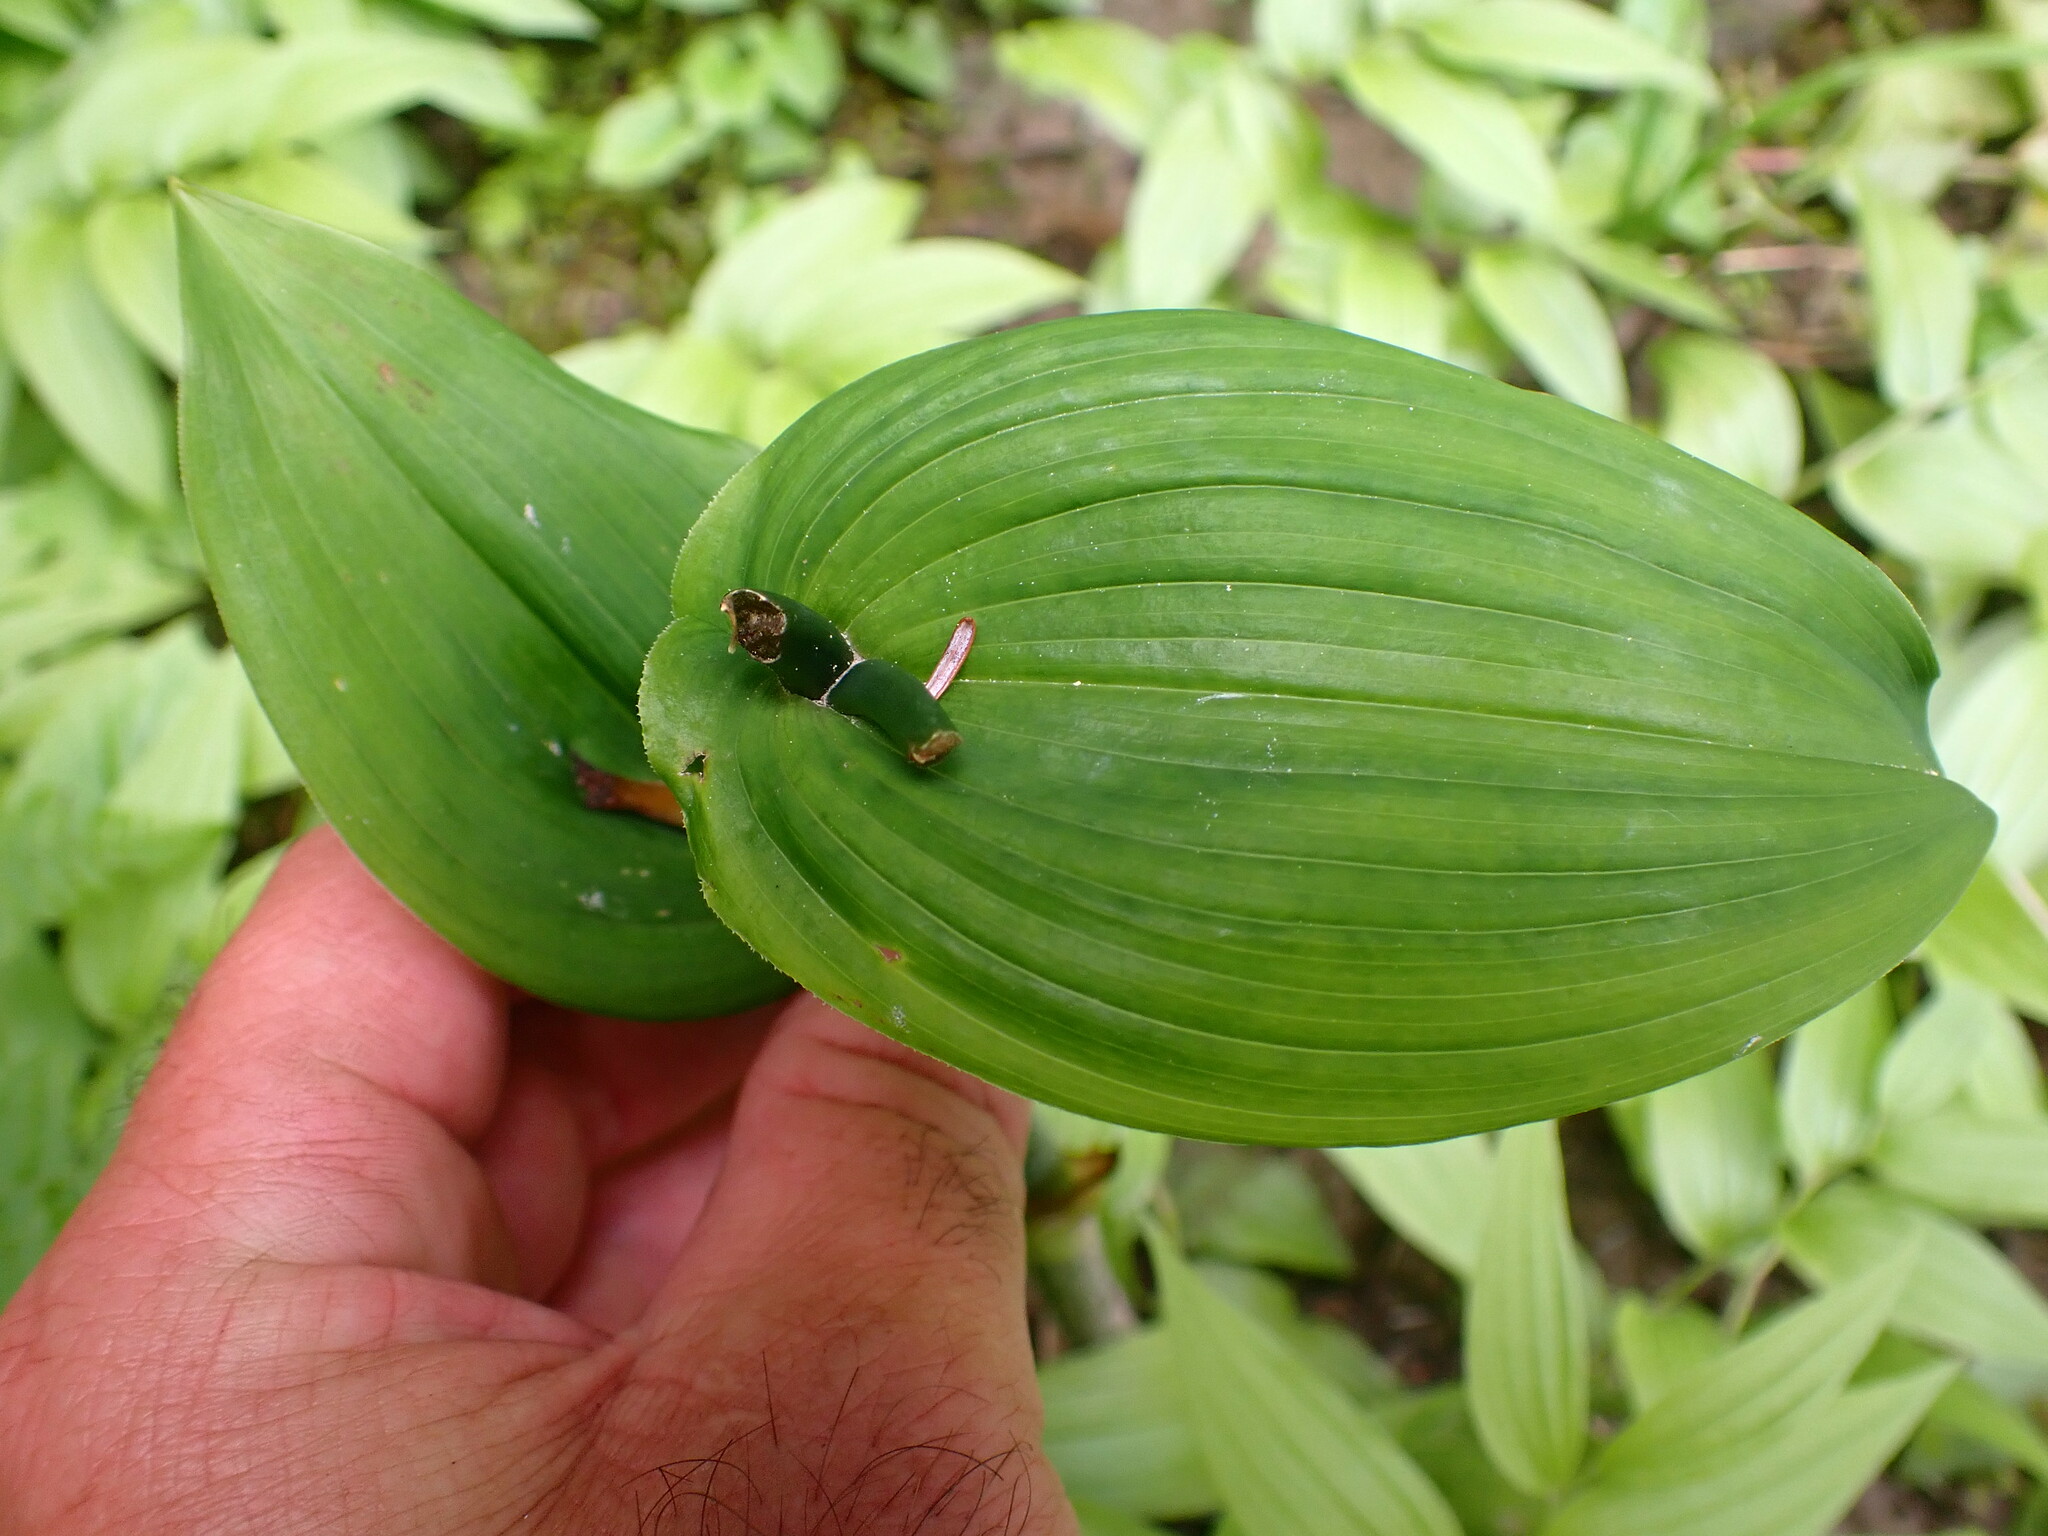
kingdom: Plantae
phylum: Tracheophyta
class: Liliopsida
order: Liliales
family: Liliaceae
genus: Streptopus
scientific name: Streptopus amplexifolius
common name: Clasp twisted stalk
